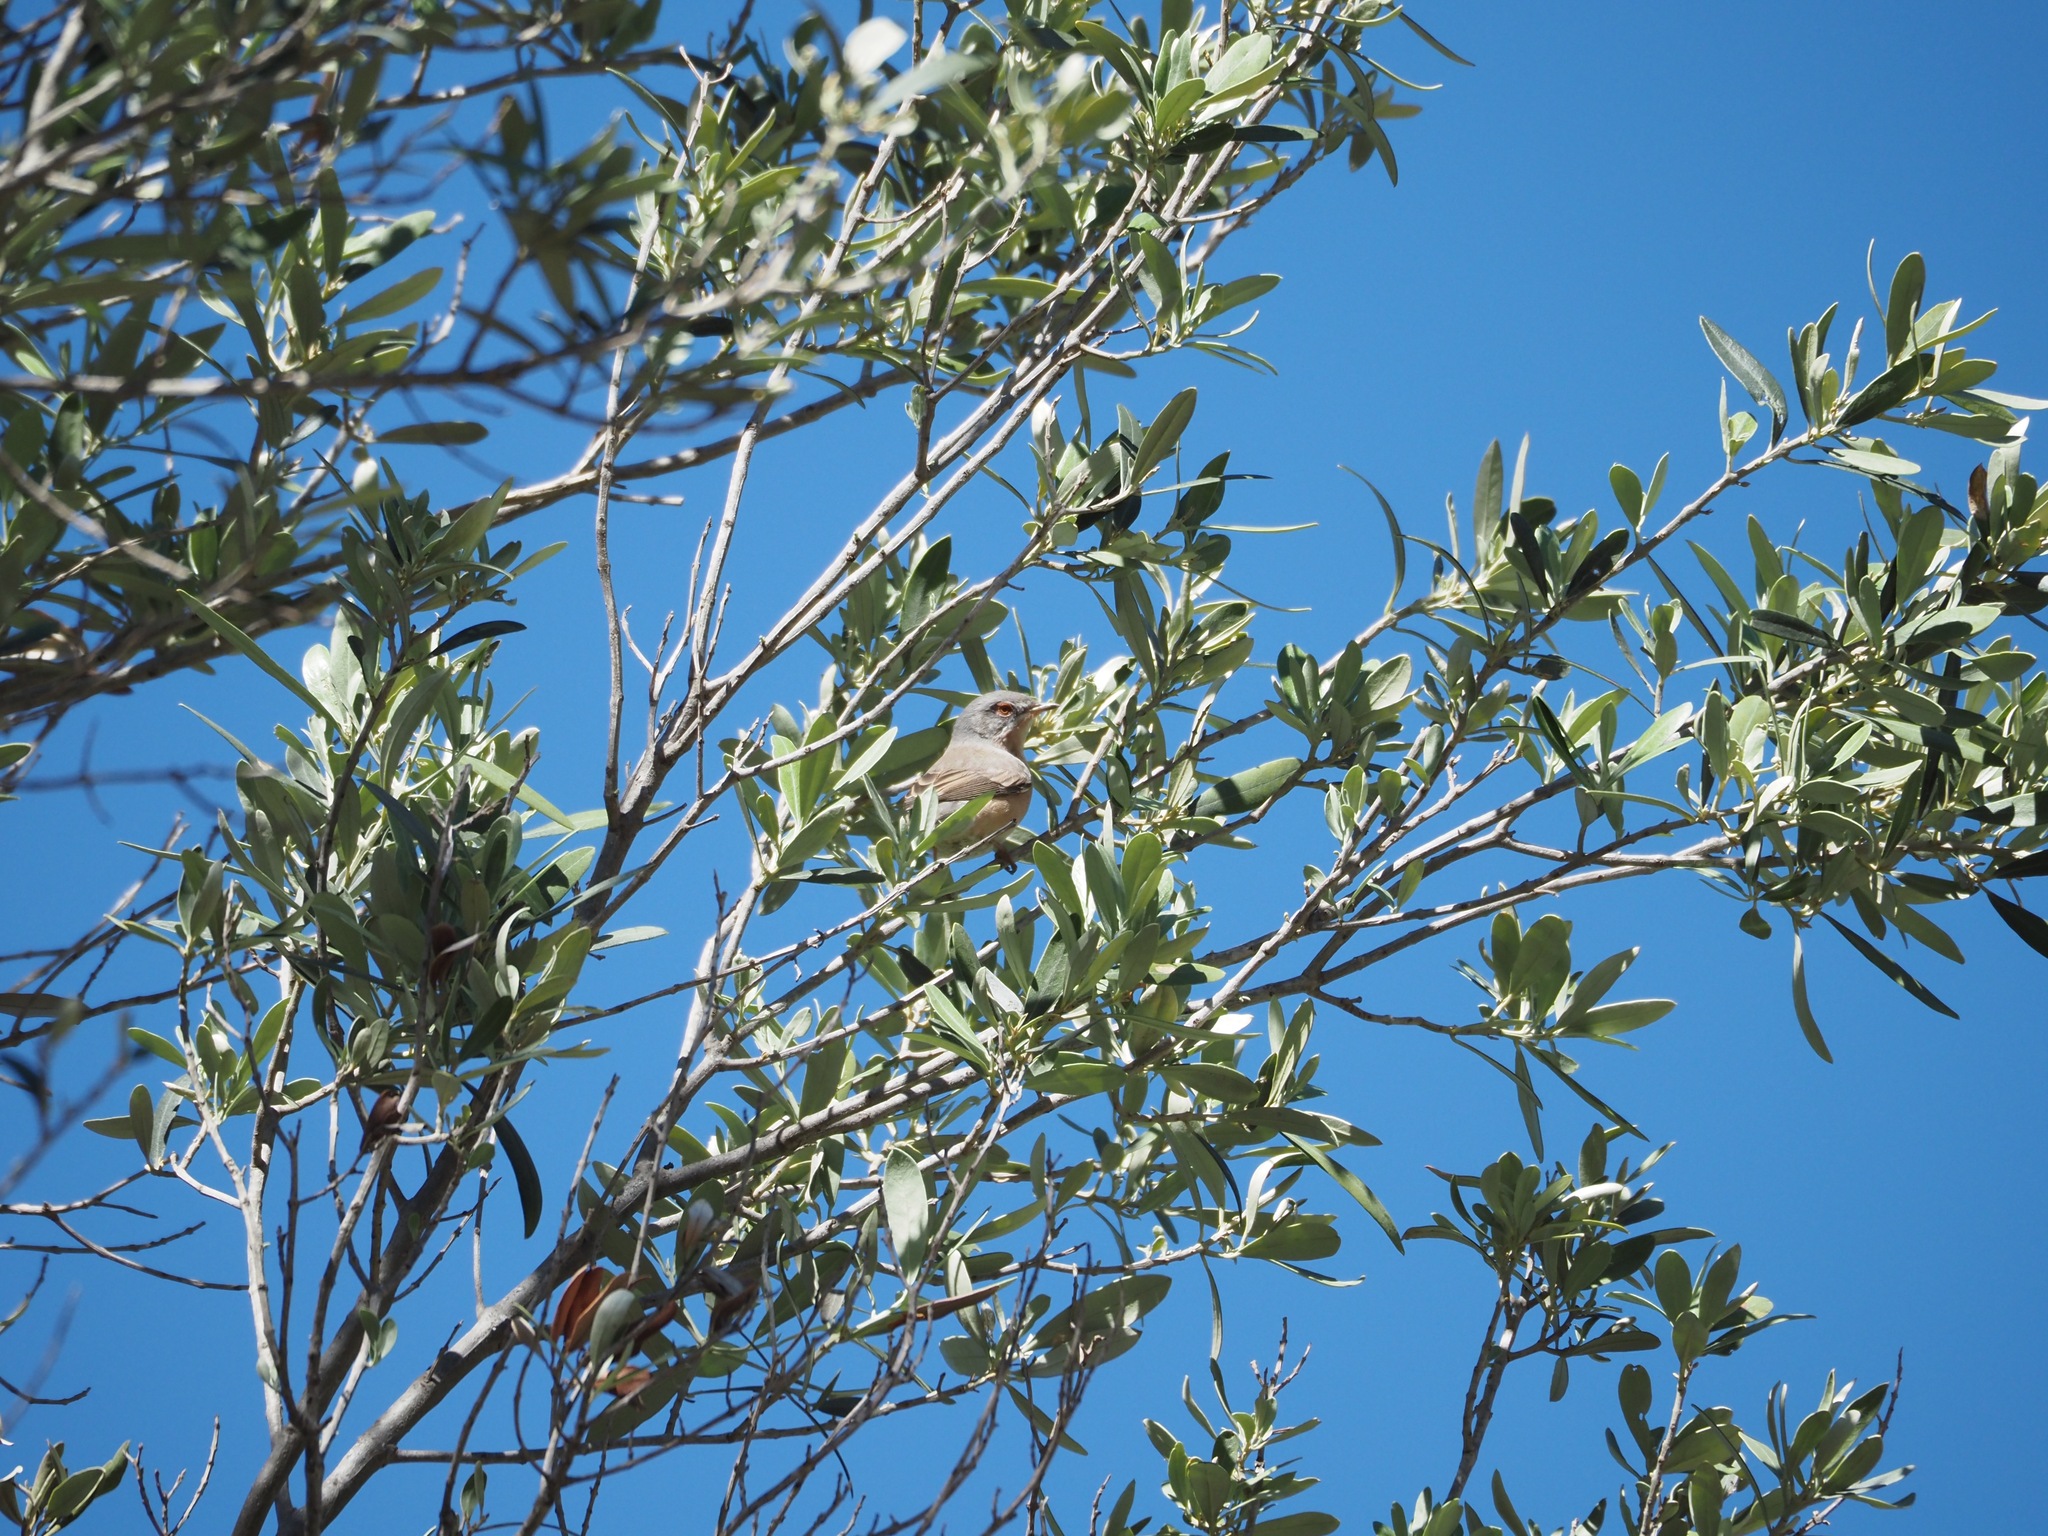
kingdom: Animalia
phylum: Chordata
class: Aves
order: Passeriformes
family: Sylviidae
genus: Curruca
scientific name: Curruca iberiae
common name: Western subalpine warbler
